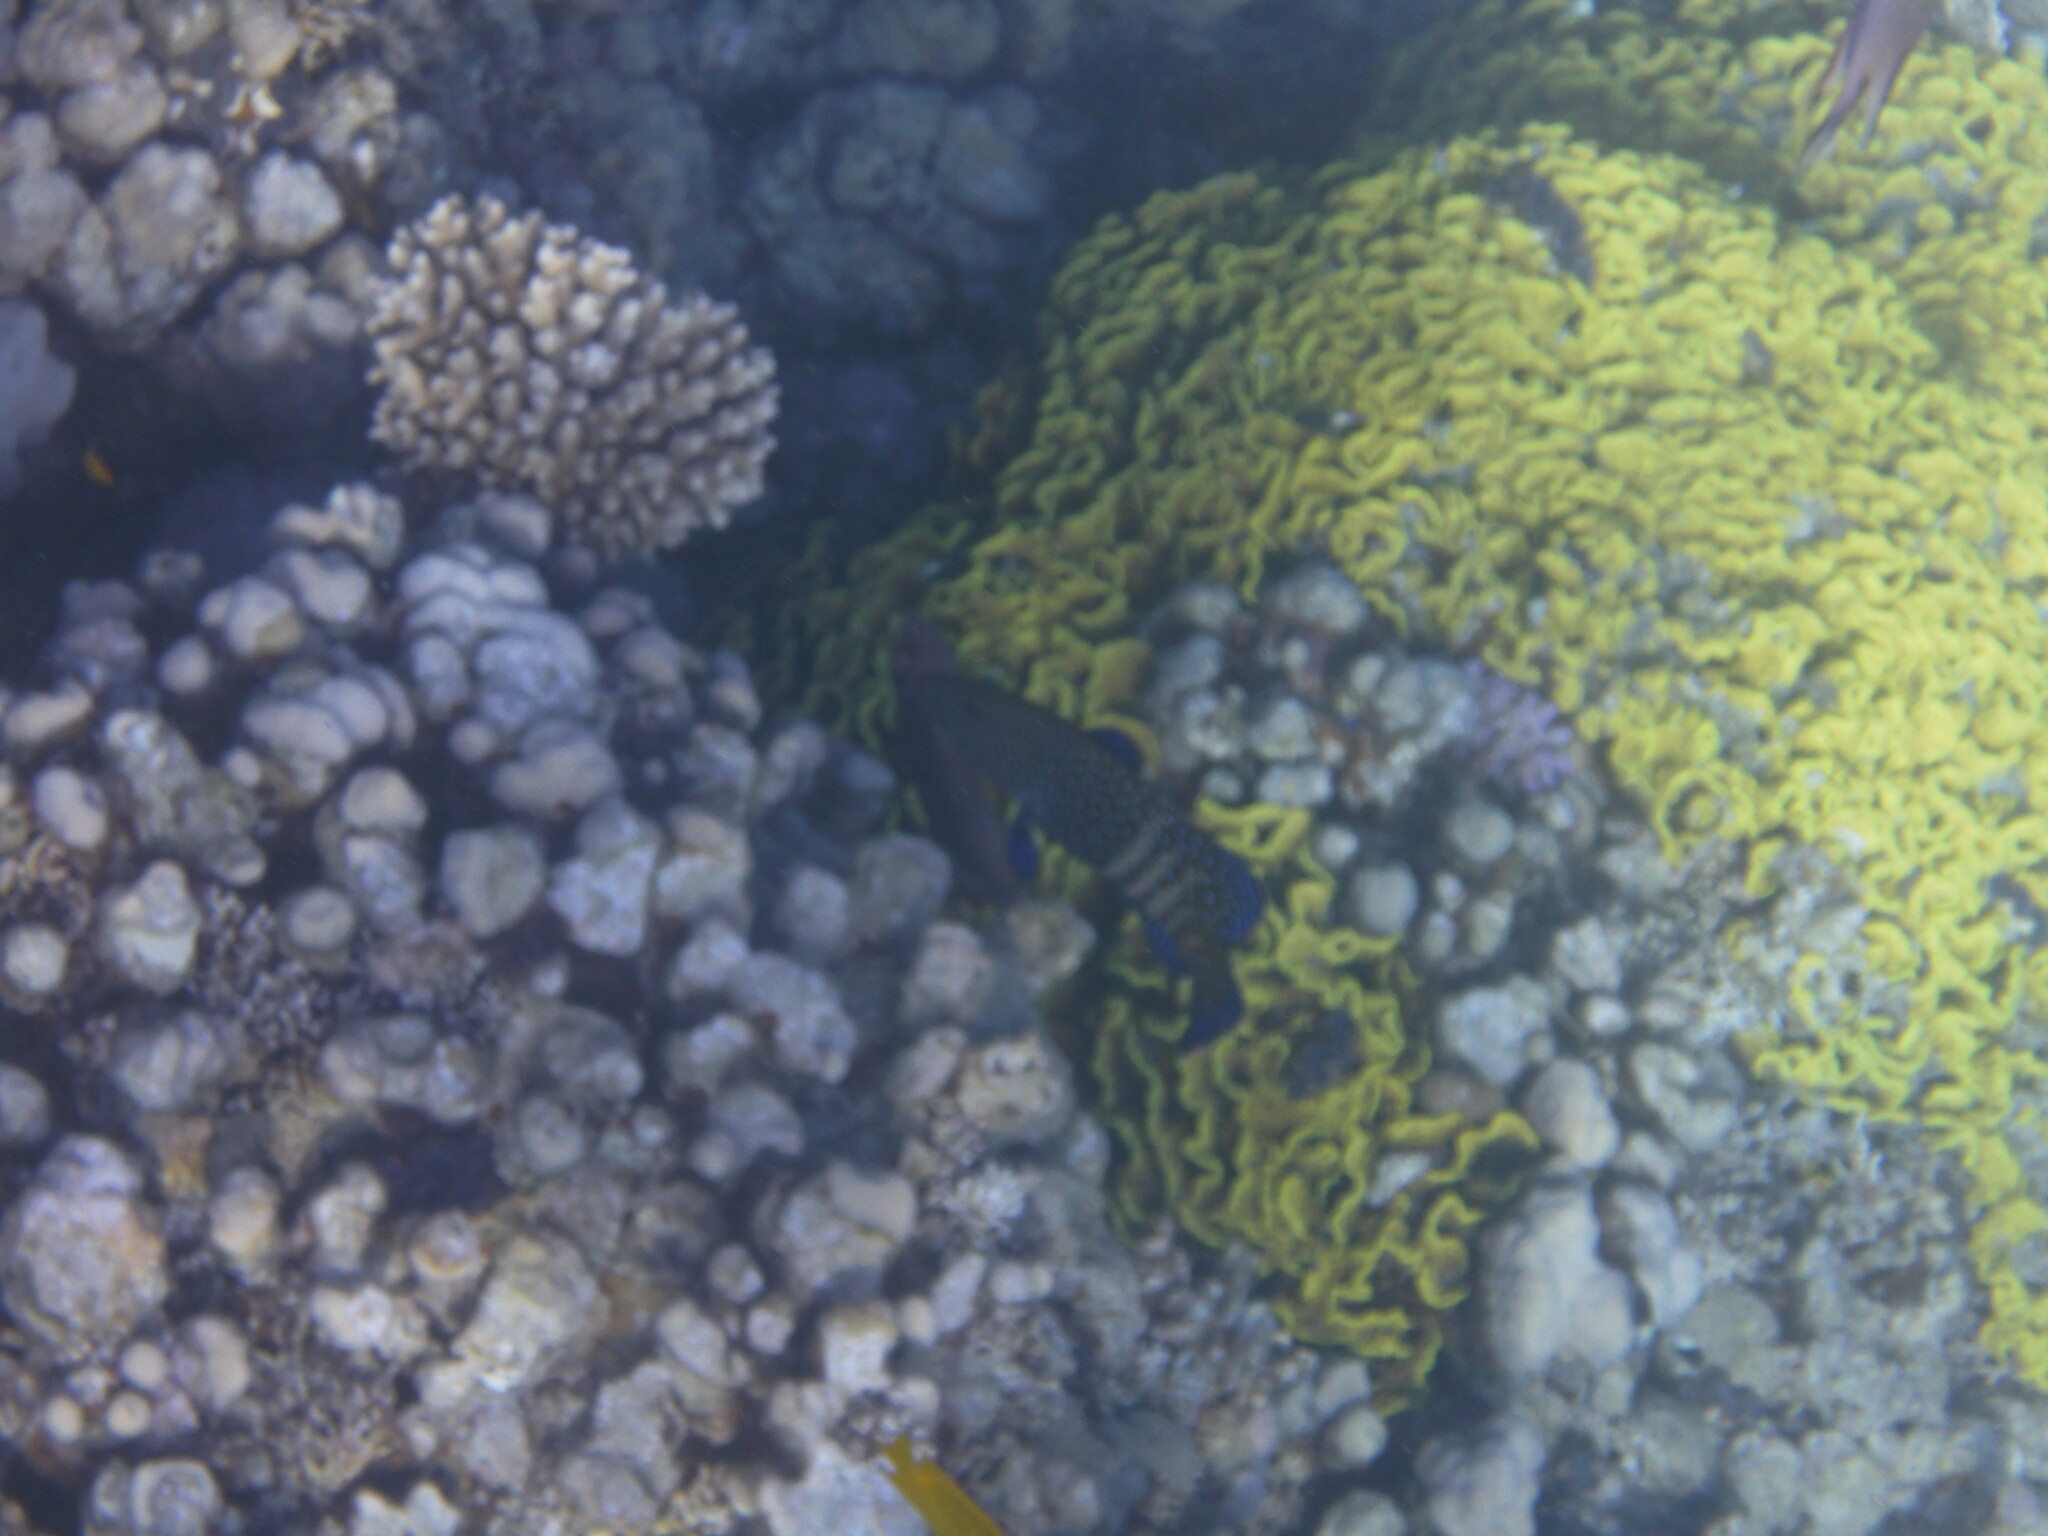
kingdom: Animalia
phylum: Chordata
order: Perciformes
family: Serranidae
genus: Cephalopholis
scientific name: Cephalopholis argus
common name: Peacock grouper
